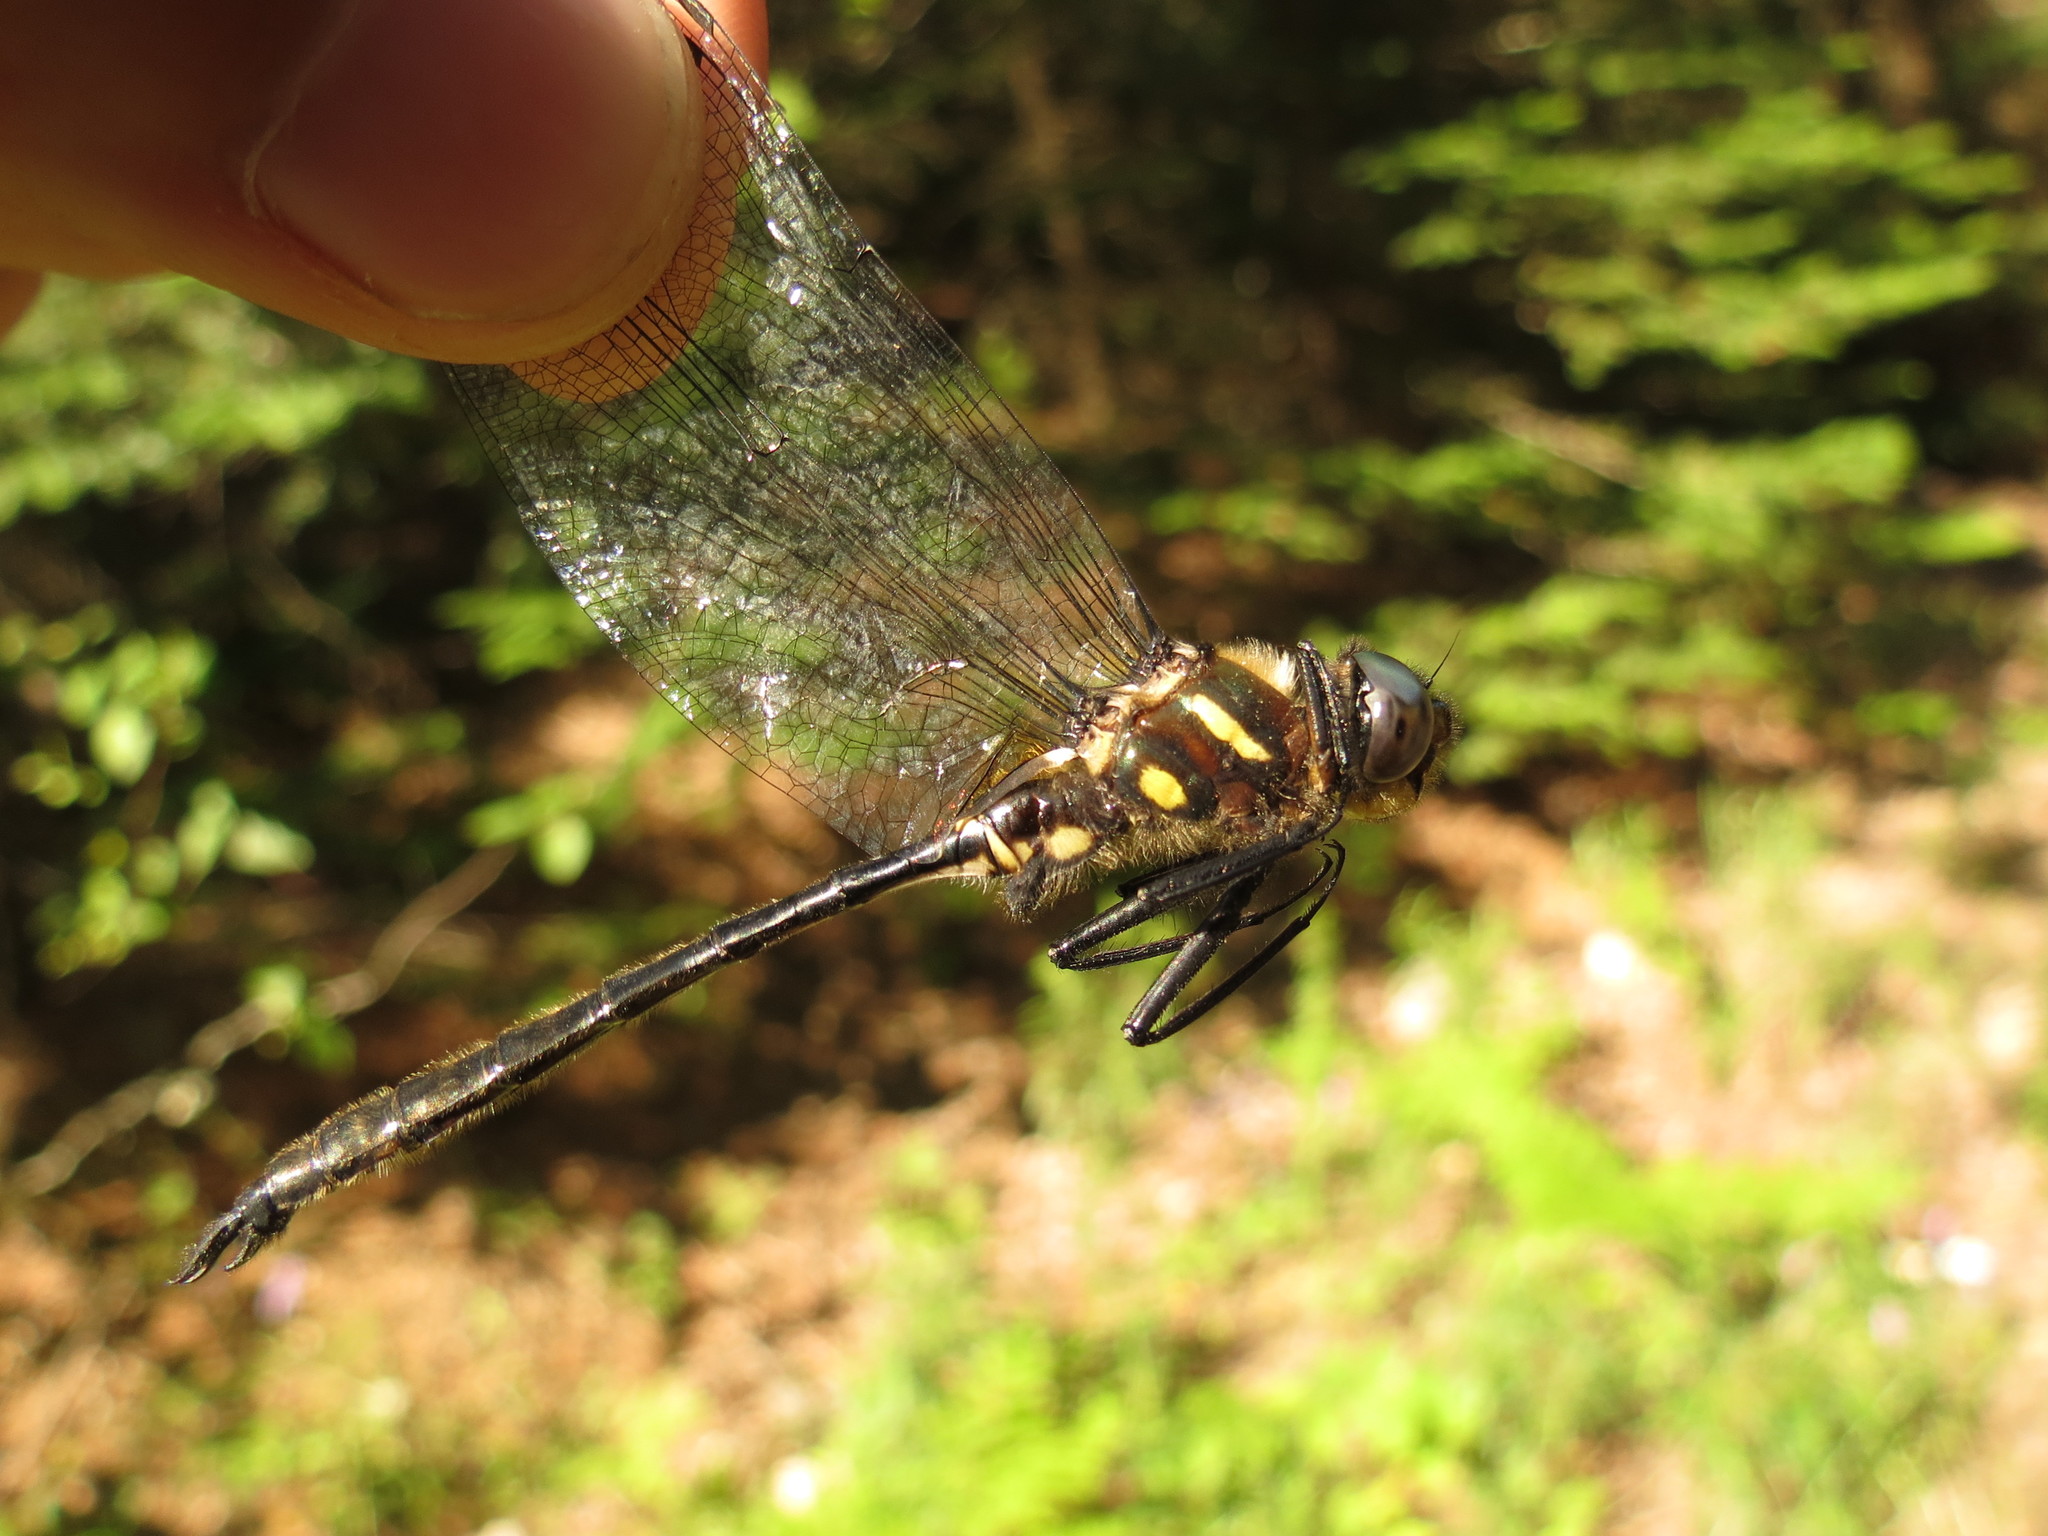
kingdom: Animalia
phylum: Arthropoda
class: Insecta
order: Odonata
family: Corduliidae
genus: Somatochlora
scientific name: Somatochlora elongata
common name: Ski-tipped emerald
